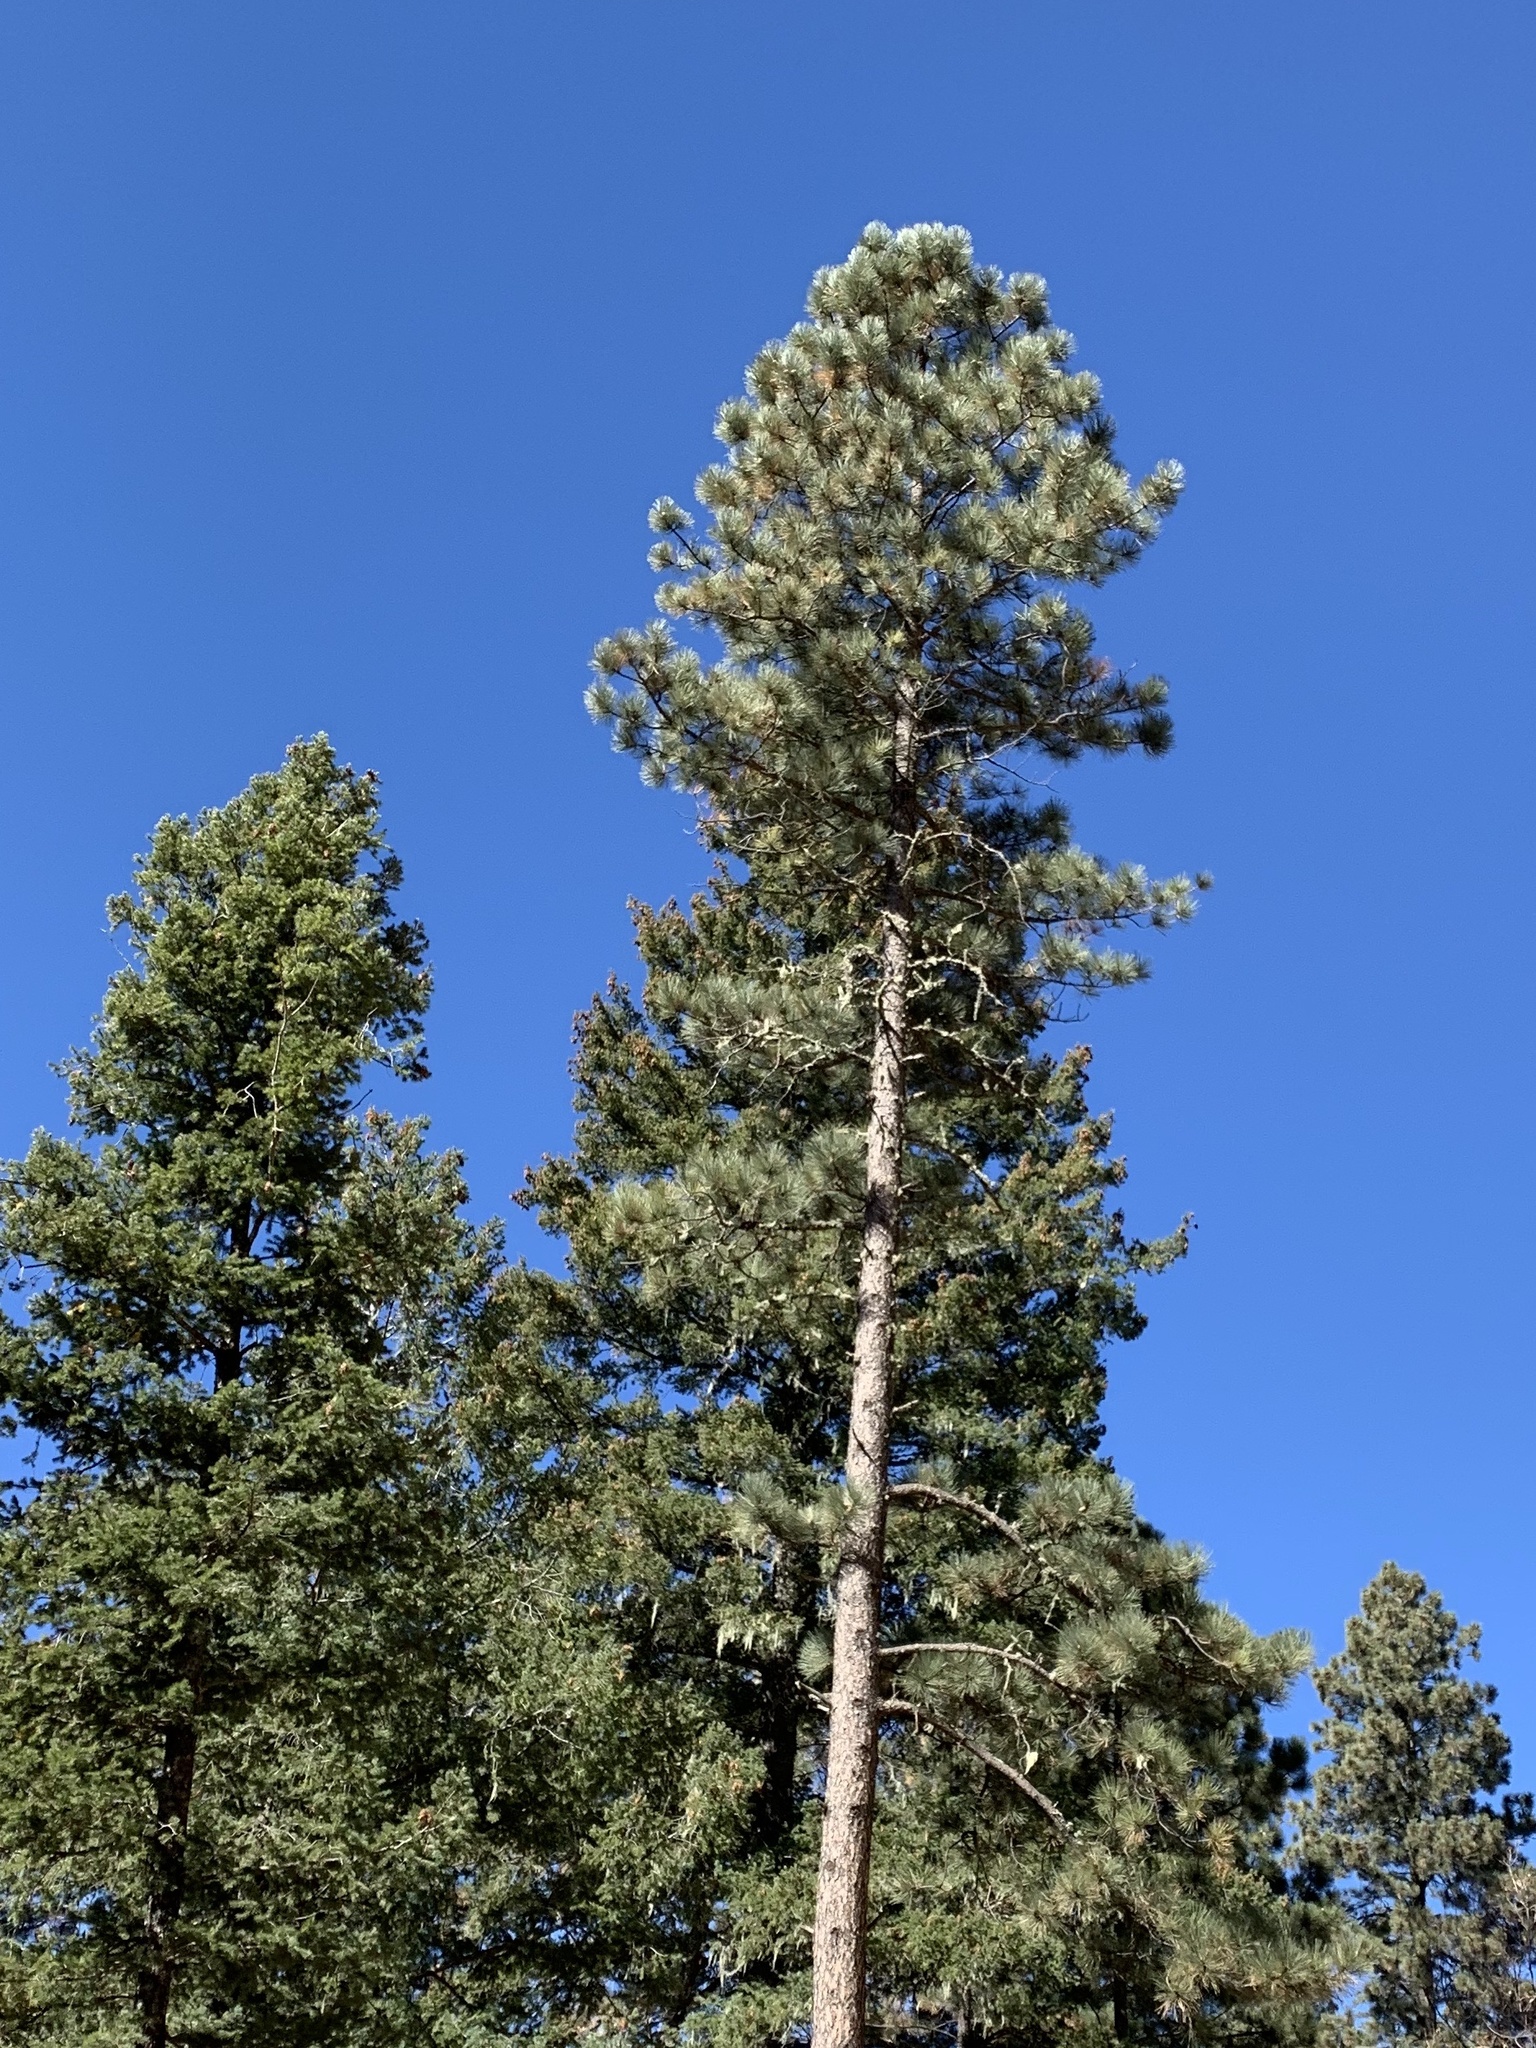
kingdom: Plantae
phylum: Tracheophyta
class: Pinopsida
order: Pinales
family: Pinaceae
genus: Pinus
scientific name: Pinus ponderosa
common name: Western yellow-pine
